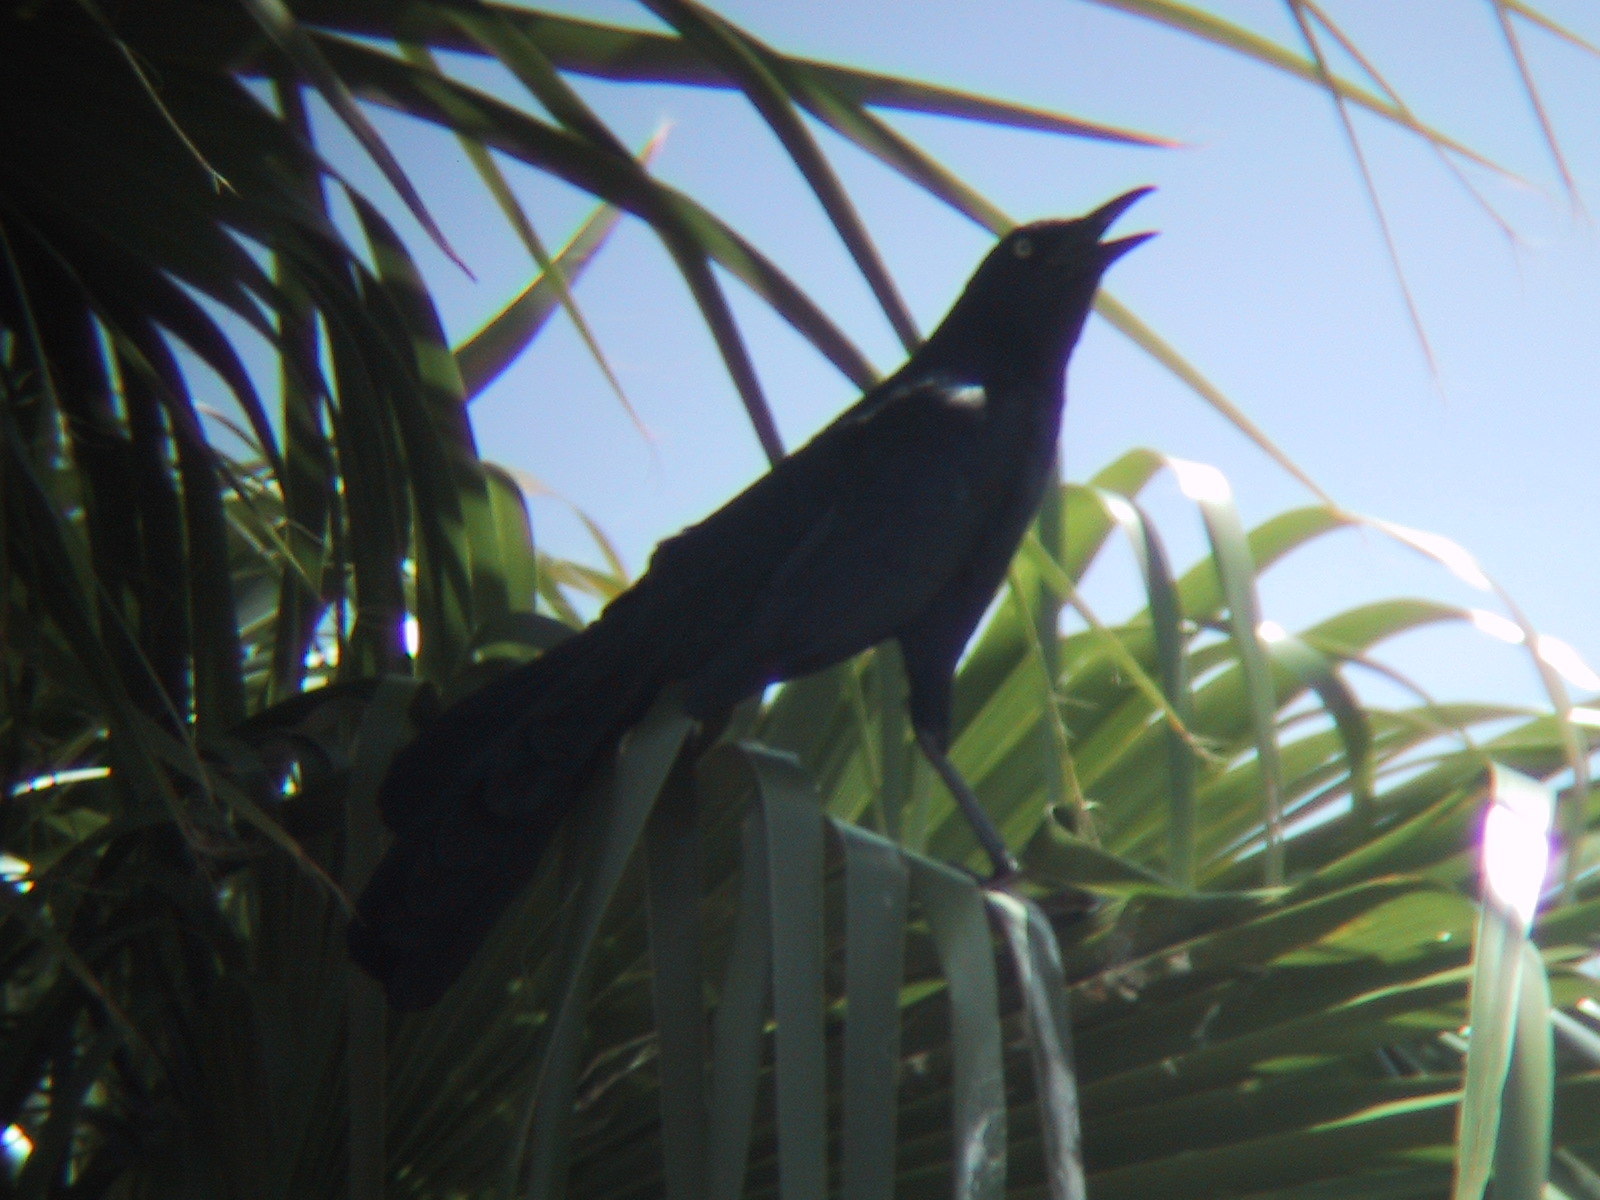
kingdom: Animalia
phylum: Chordata
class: Aves
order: Passeriformes
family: Icteridae
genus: Quiscalus
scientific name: Quiscalus mexicanus
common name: Great-tailed grackle
